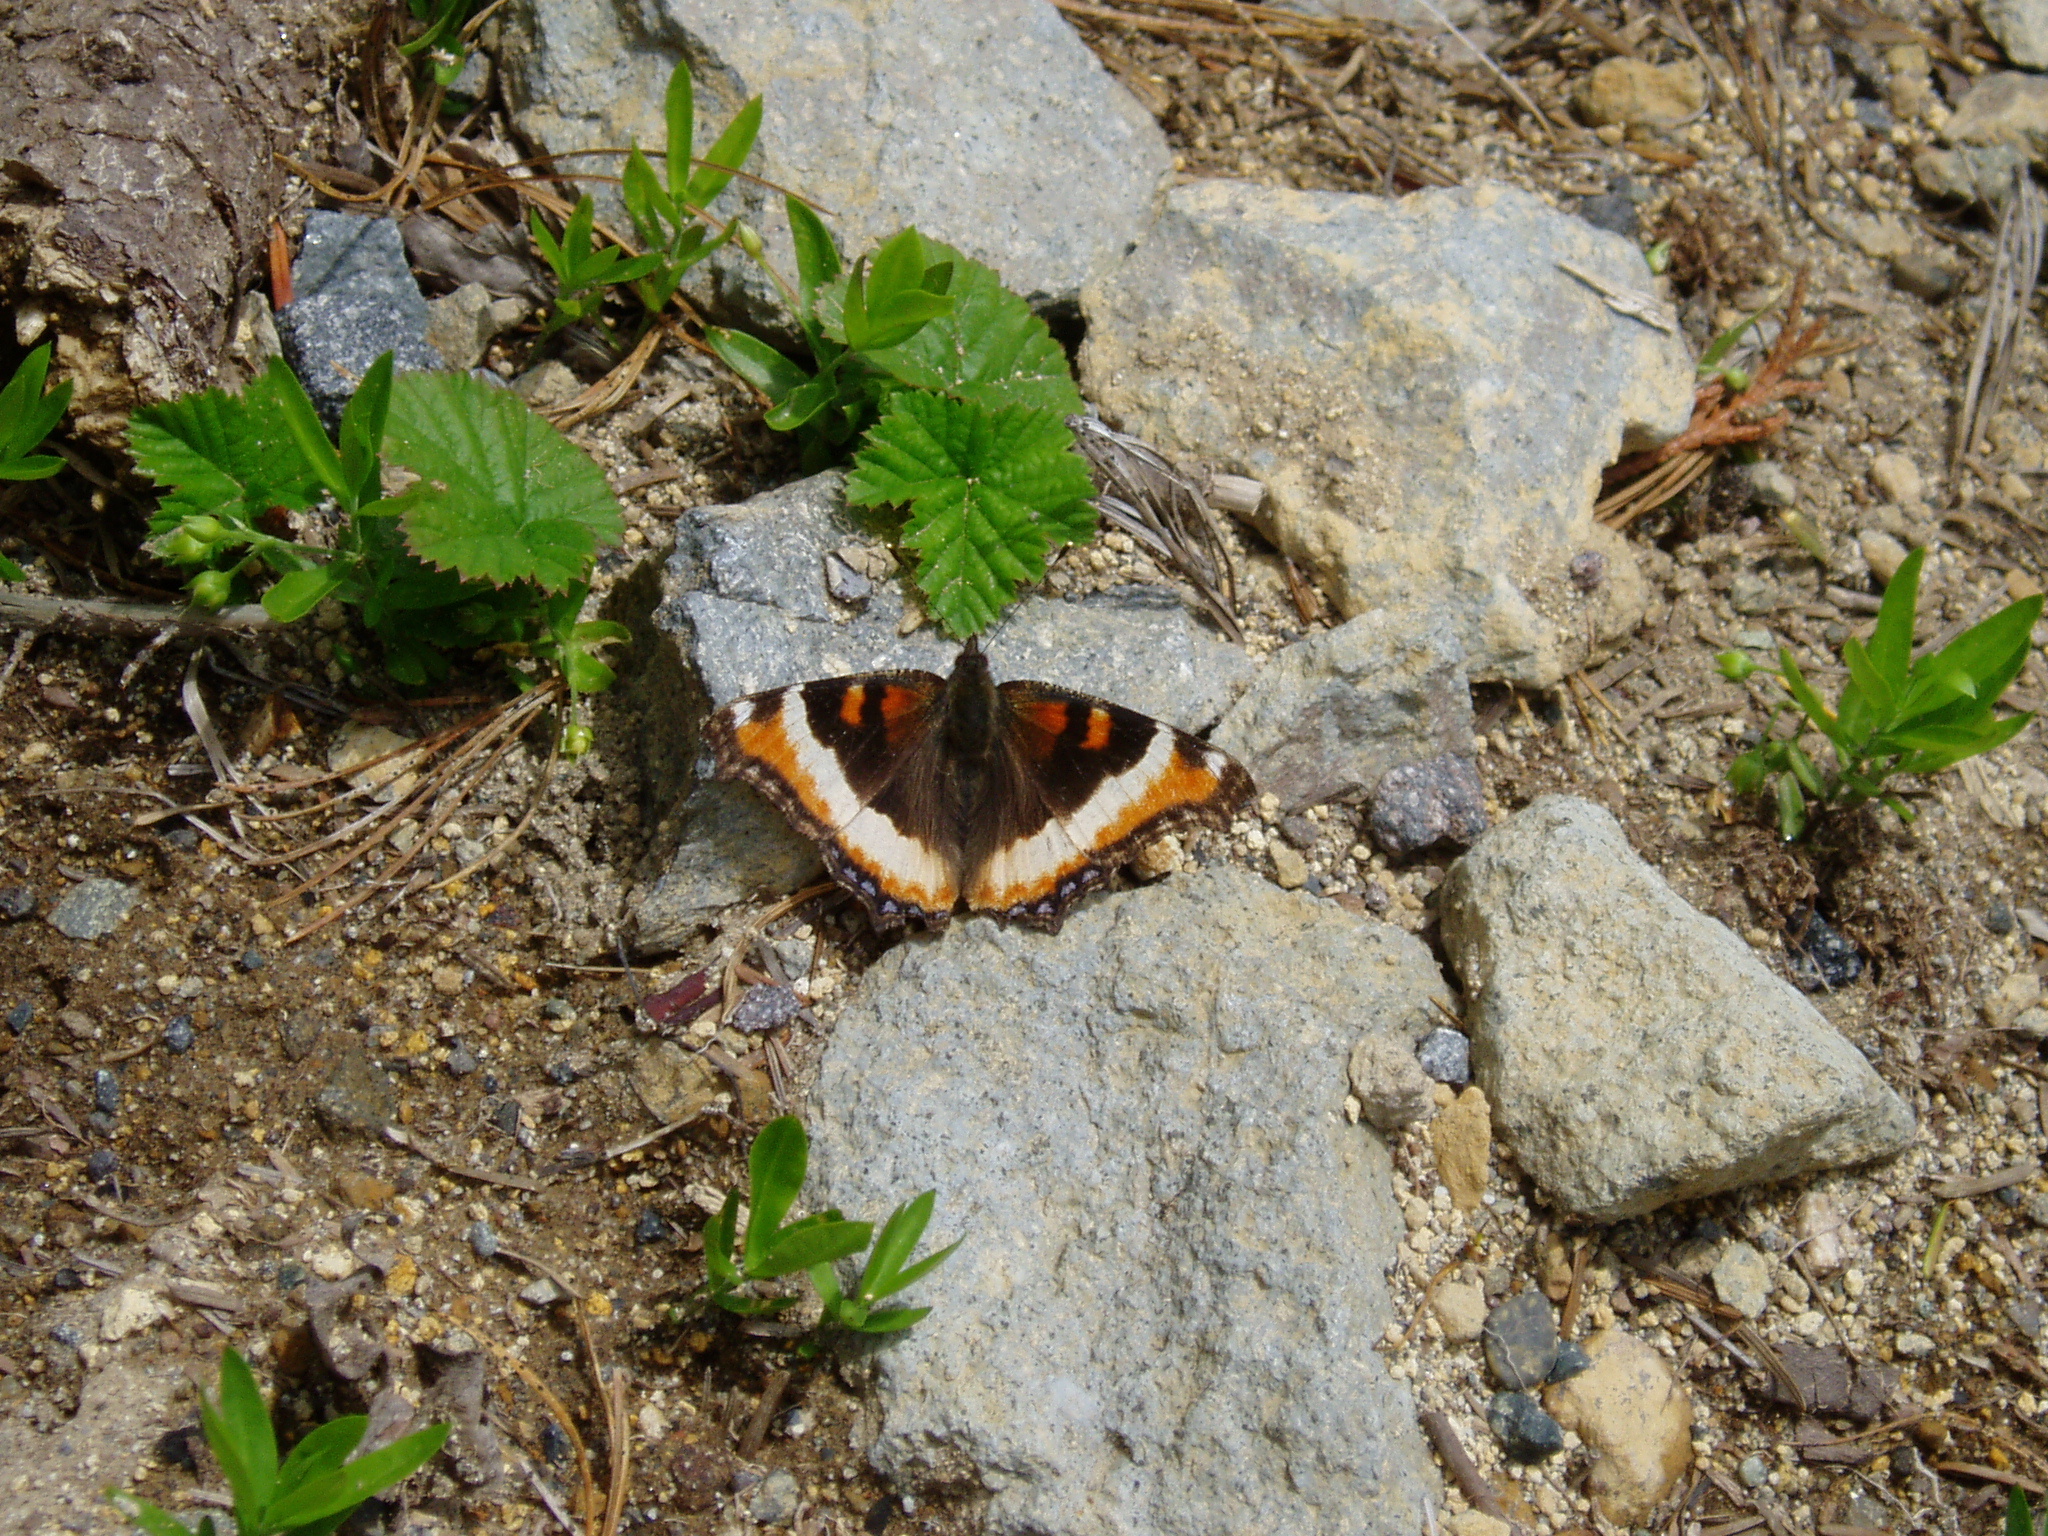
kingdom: Animalia
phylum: Arthropoda
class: Insecta
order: Lepidoptera
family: Nymphalidae
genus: Aglais
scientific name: Aglais milberti
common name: Milbert's tortoiseshell
